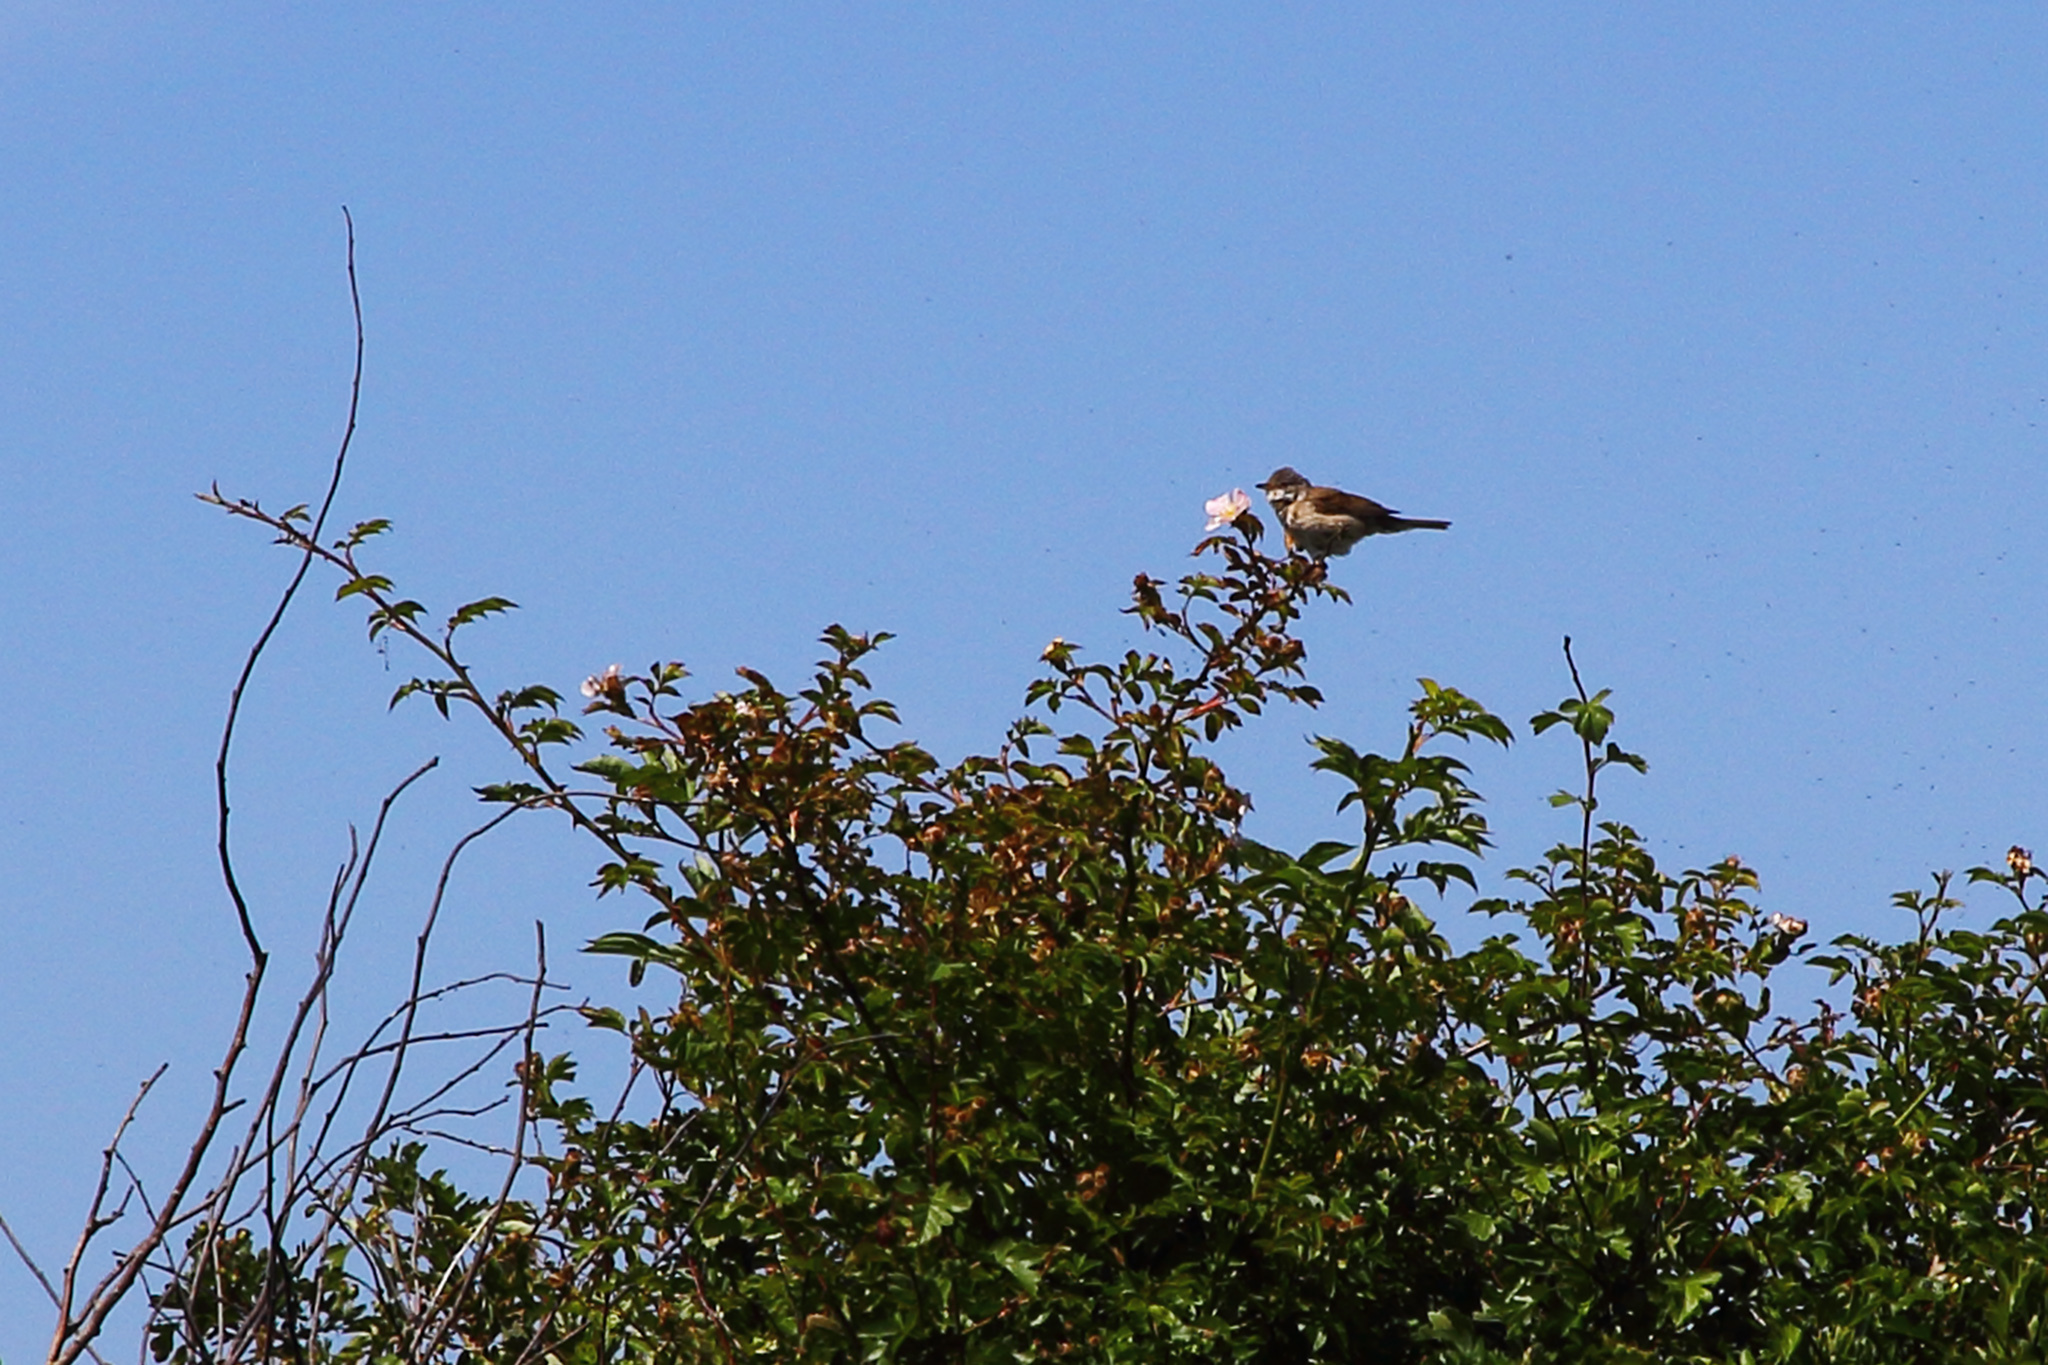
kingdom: Animalia
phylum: Chordata
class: Aves
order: Passeriformes
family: Sylviidae
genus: Sylvia
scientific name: Sylvia communis
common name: Common whitethroat
